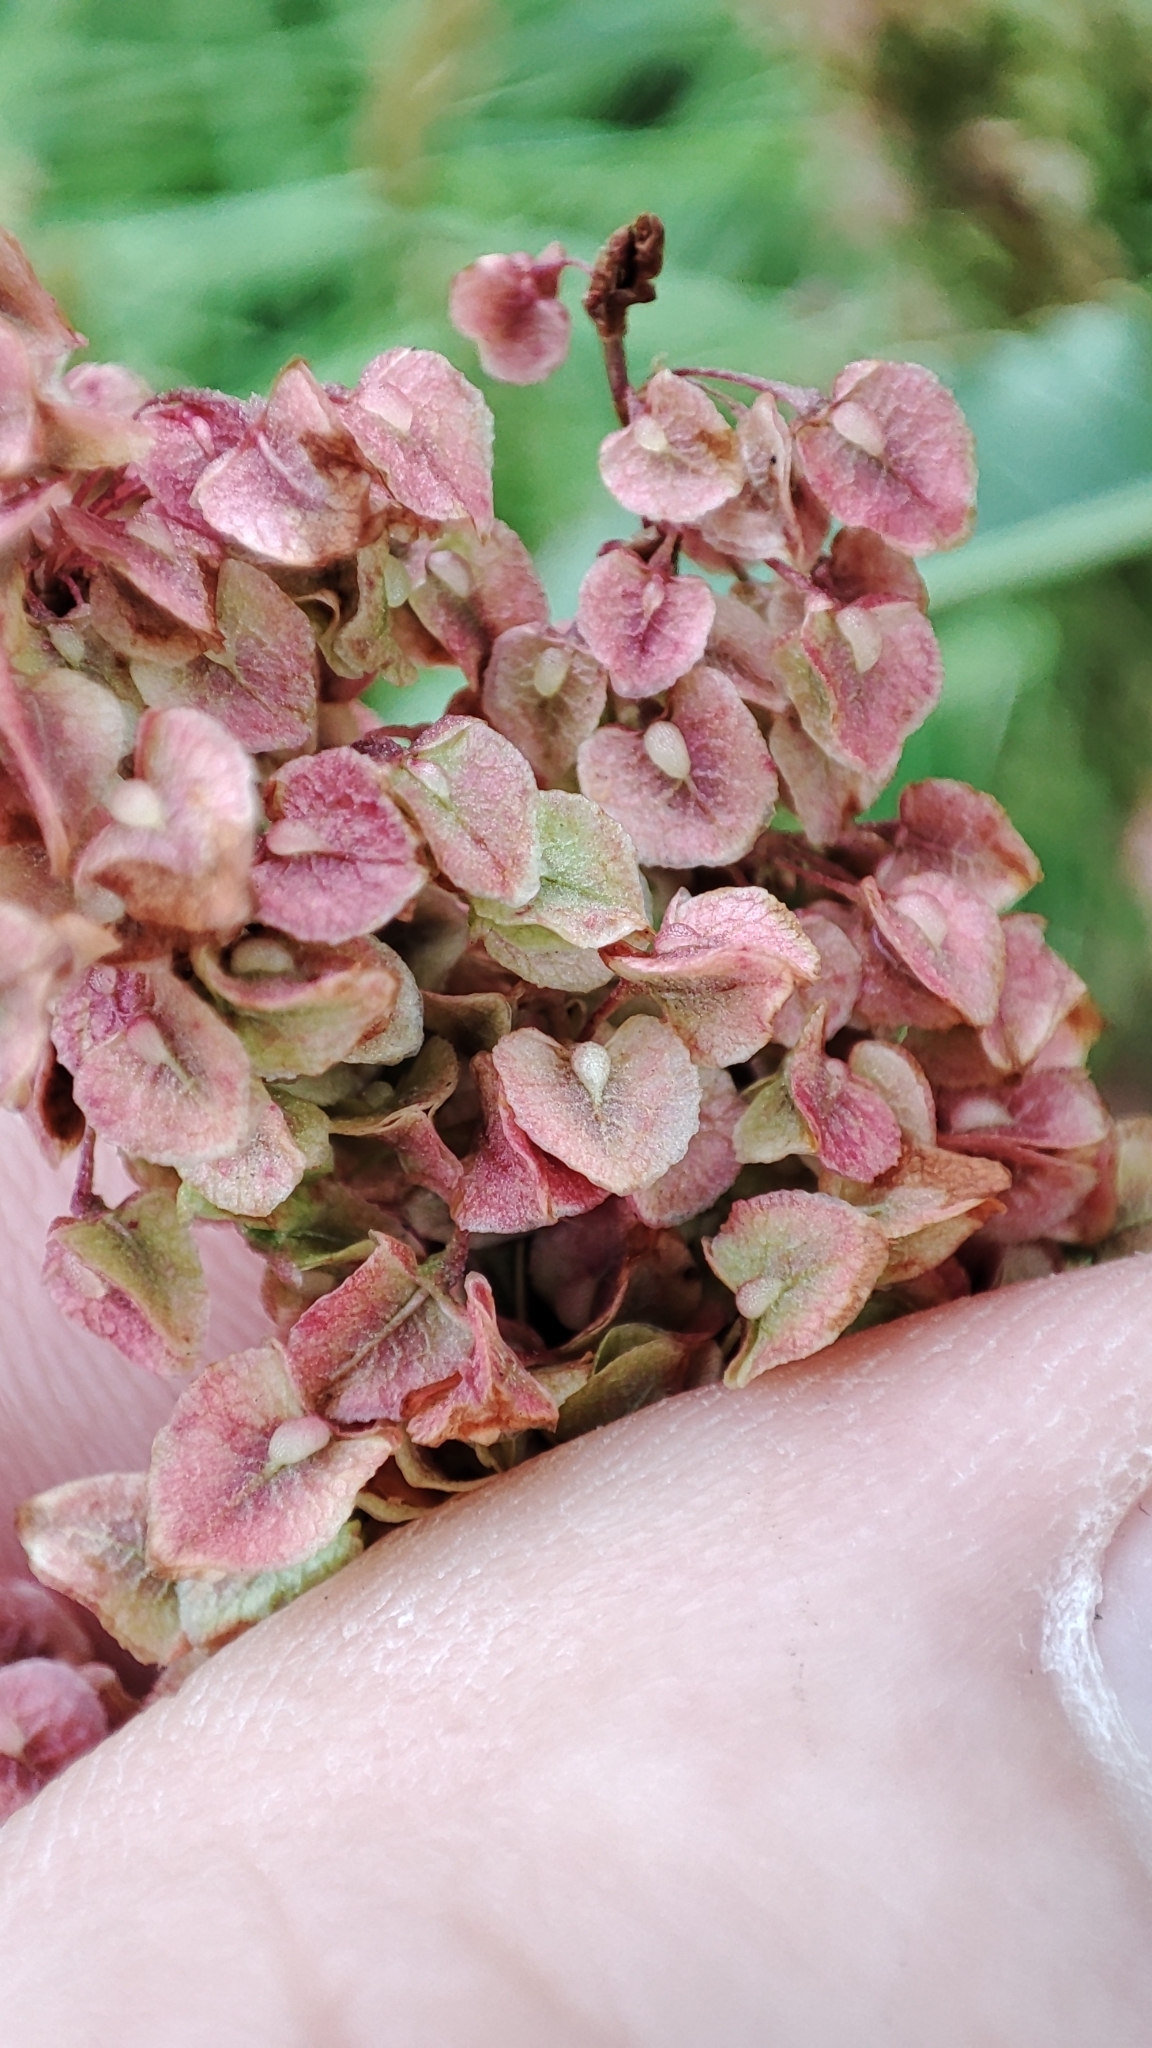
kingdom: Plantae
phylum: Tracheophyta
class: Magnoliopsida
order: Caryophyllales
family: Polygonaceae
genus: Rumex
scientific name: Rumex crispus
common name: Curled dock
